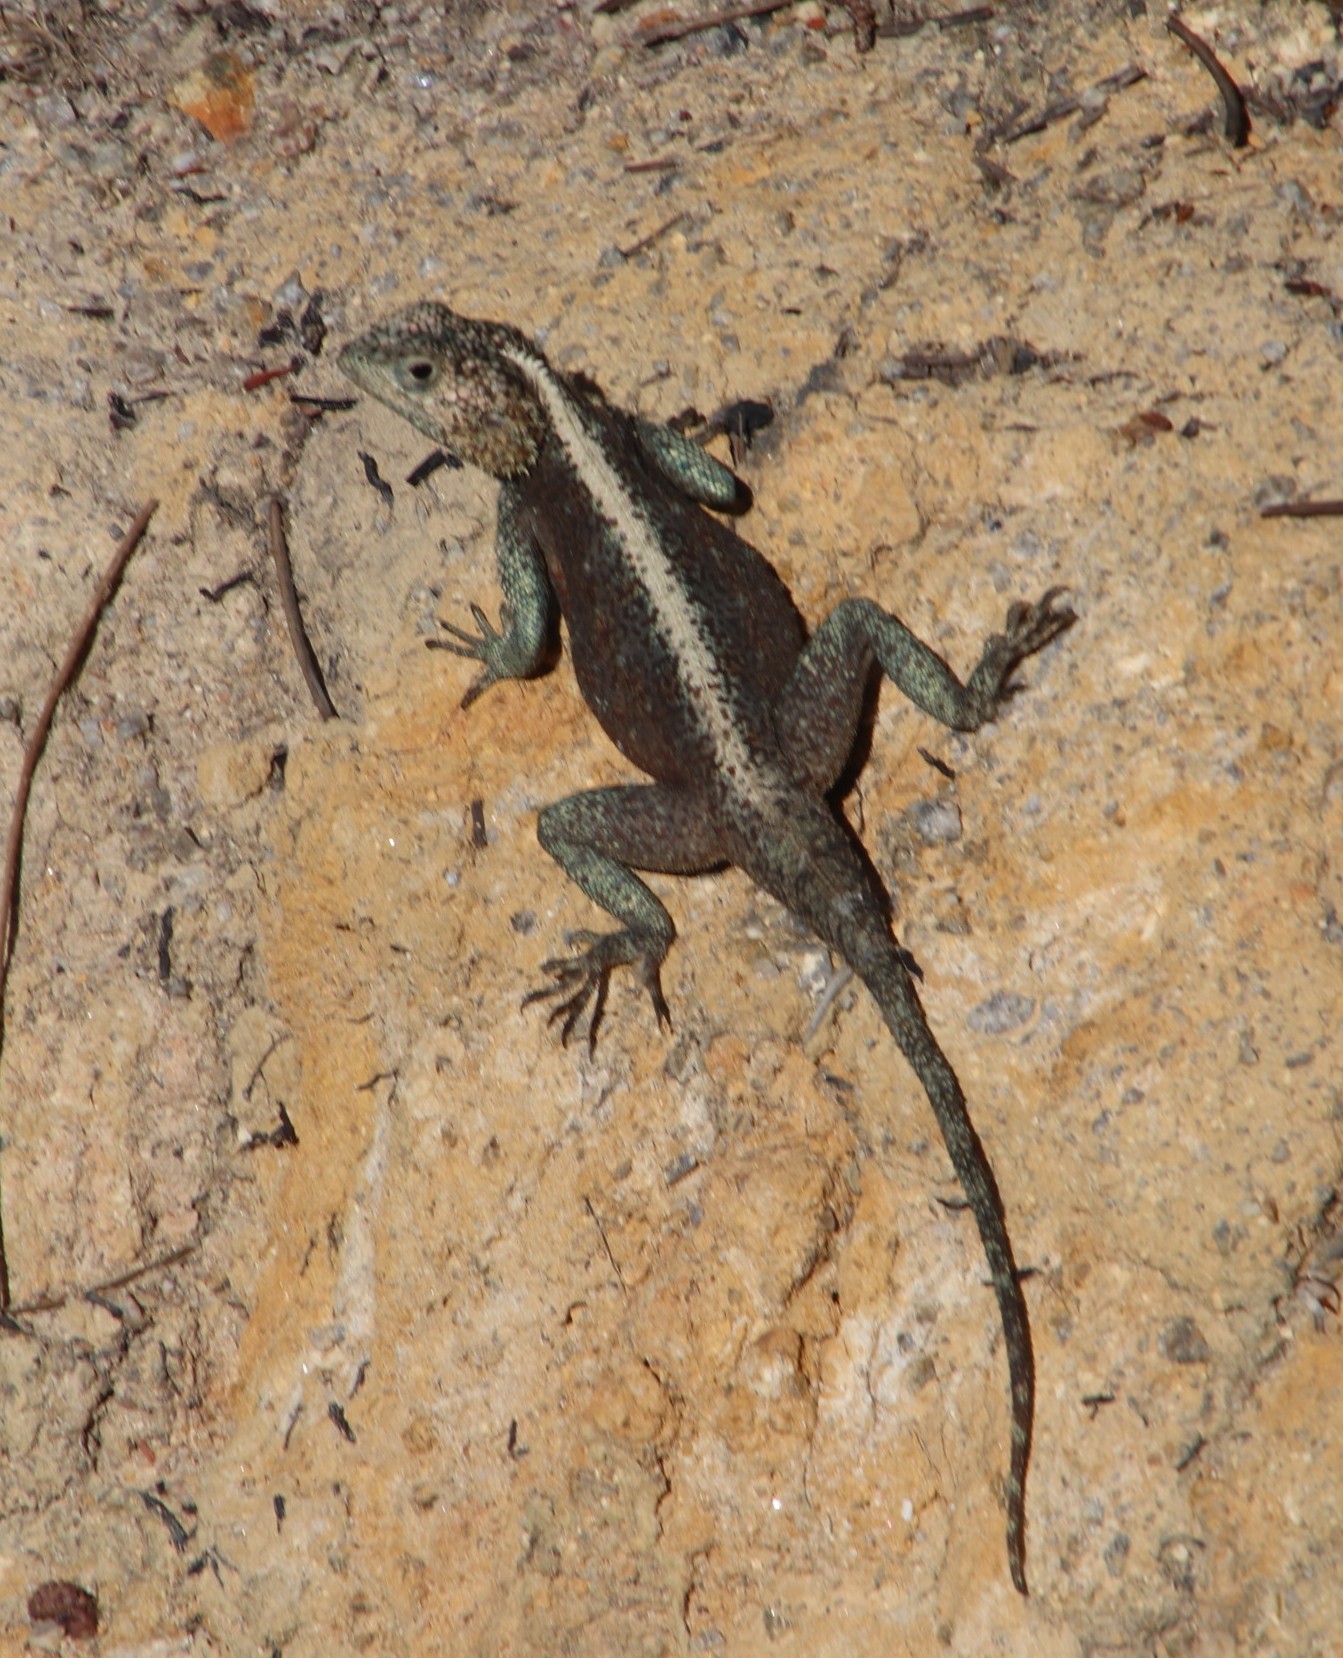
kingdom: Animalia
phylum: Chordata
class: Squamata
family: Agamidae
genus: Agama
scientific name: Agama atra
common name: Southern african rock agama
